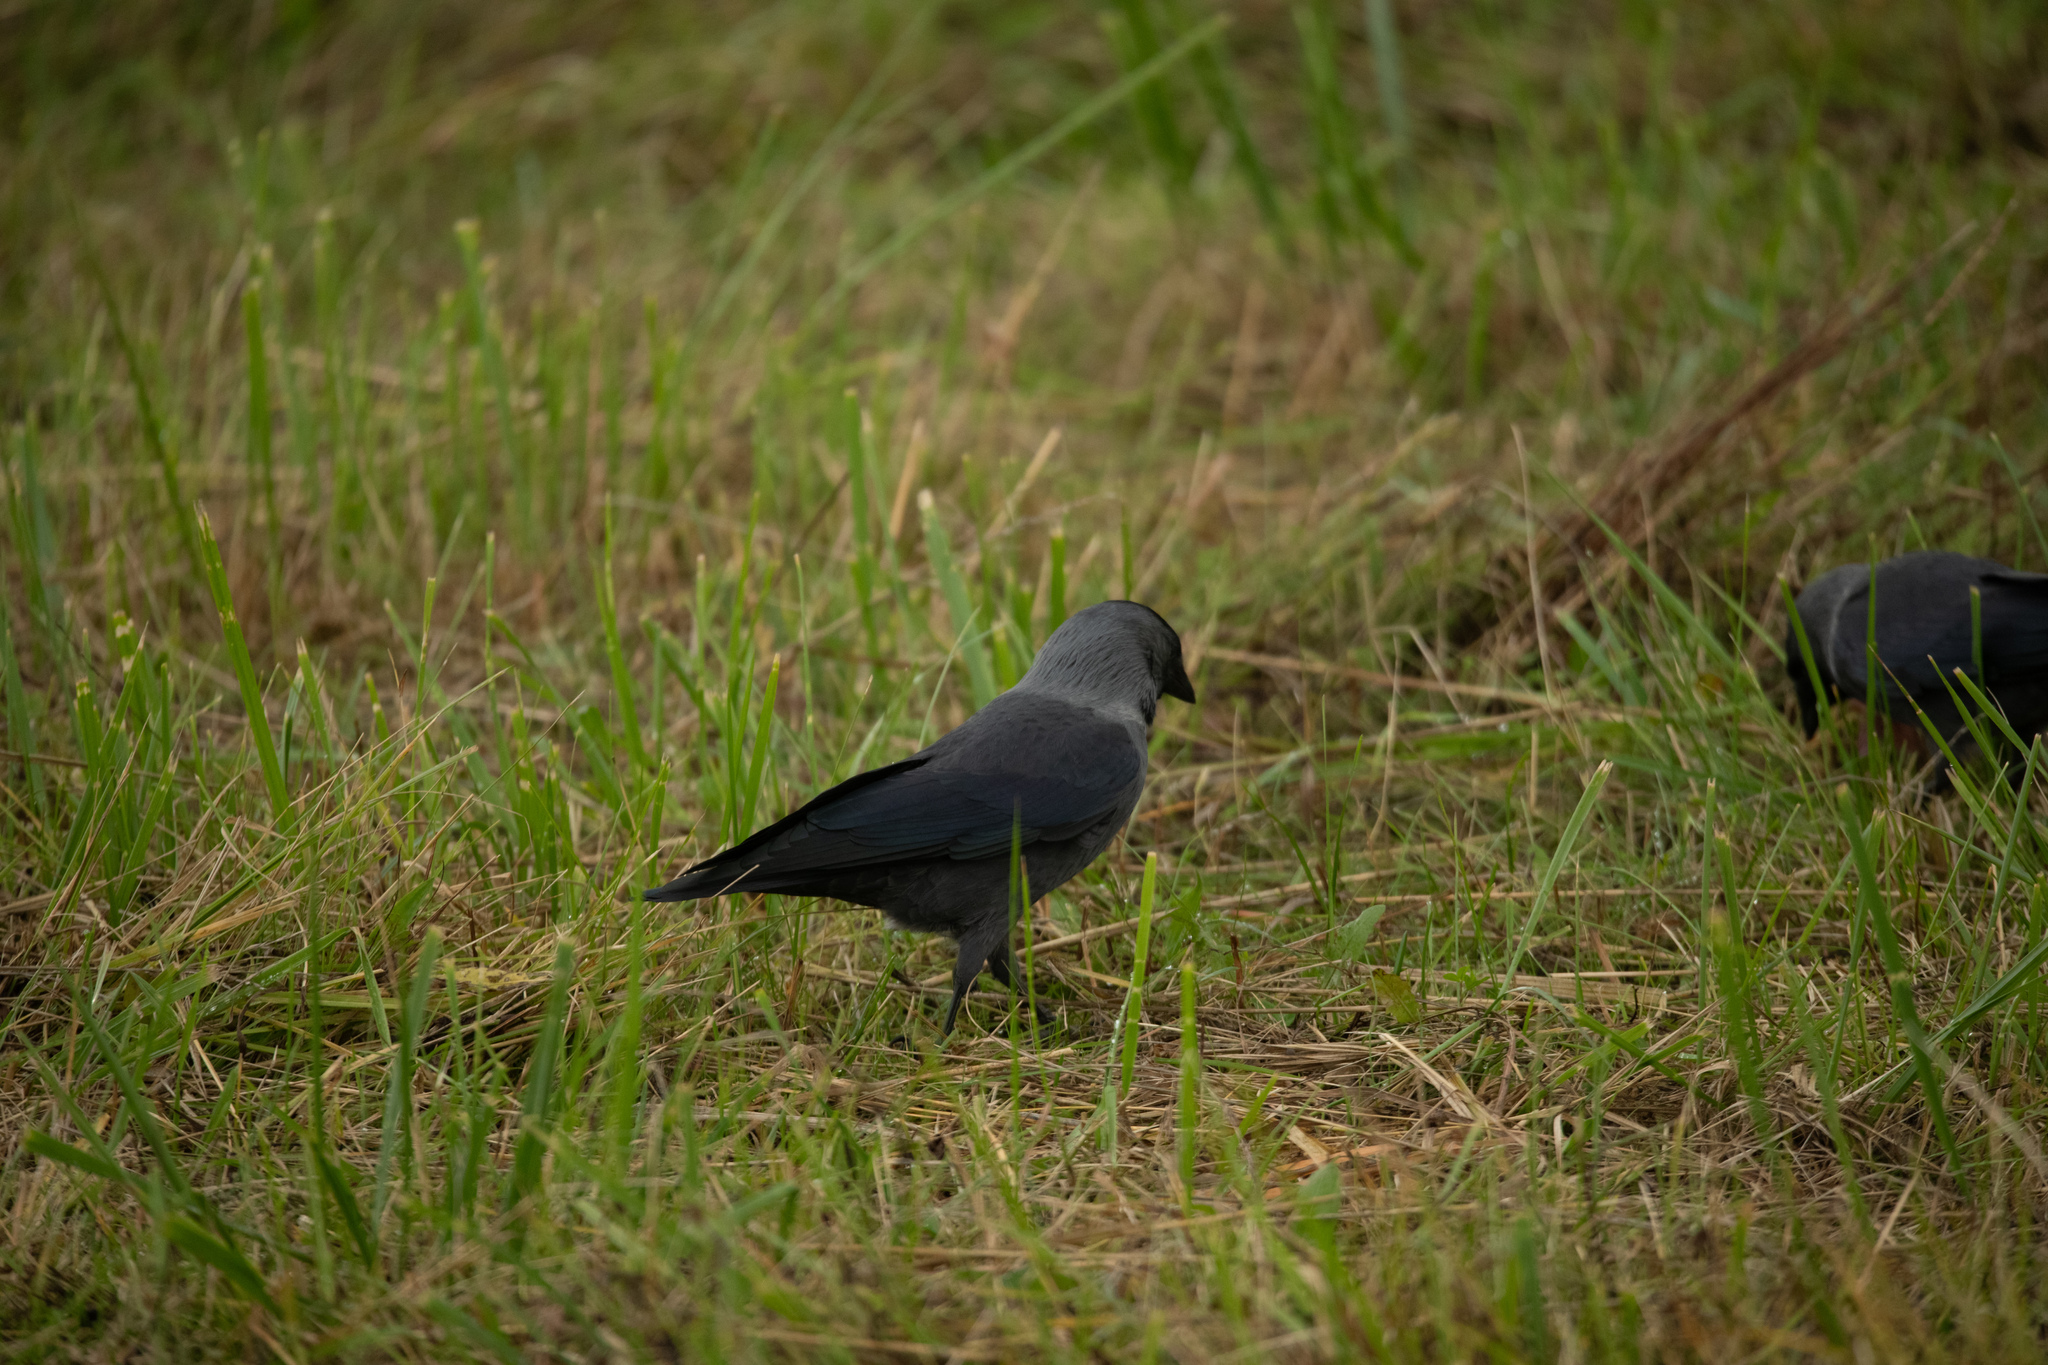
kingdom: Animalia
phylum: Chordata
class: Aves
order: Passeriformes
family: Corvidae
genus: Coloeus
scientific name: Coloeus monedula
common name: Western jackdaw
